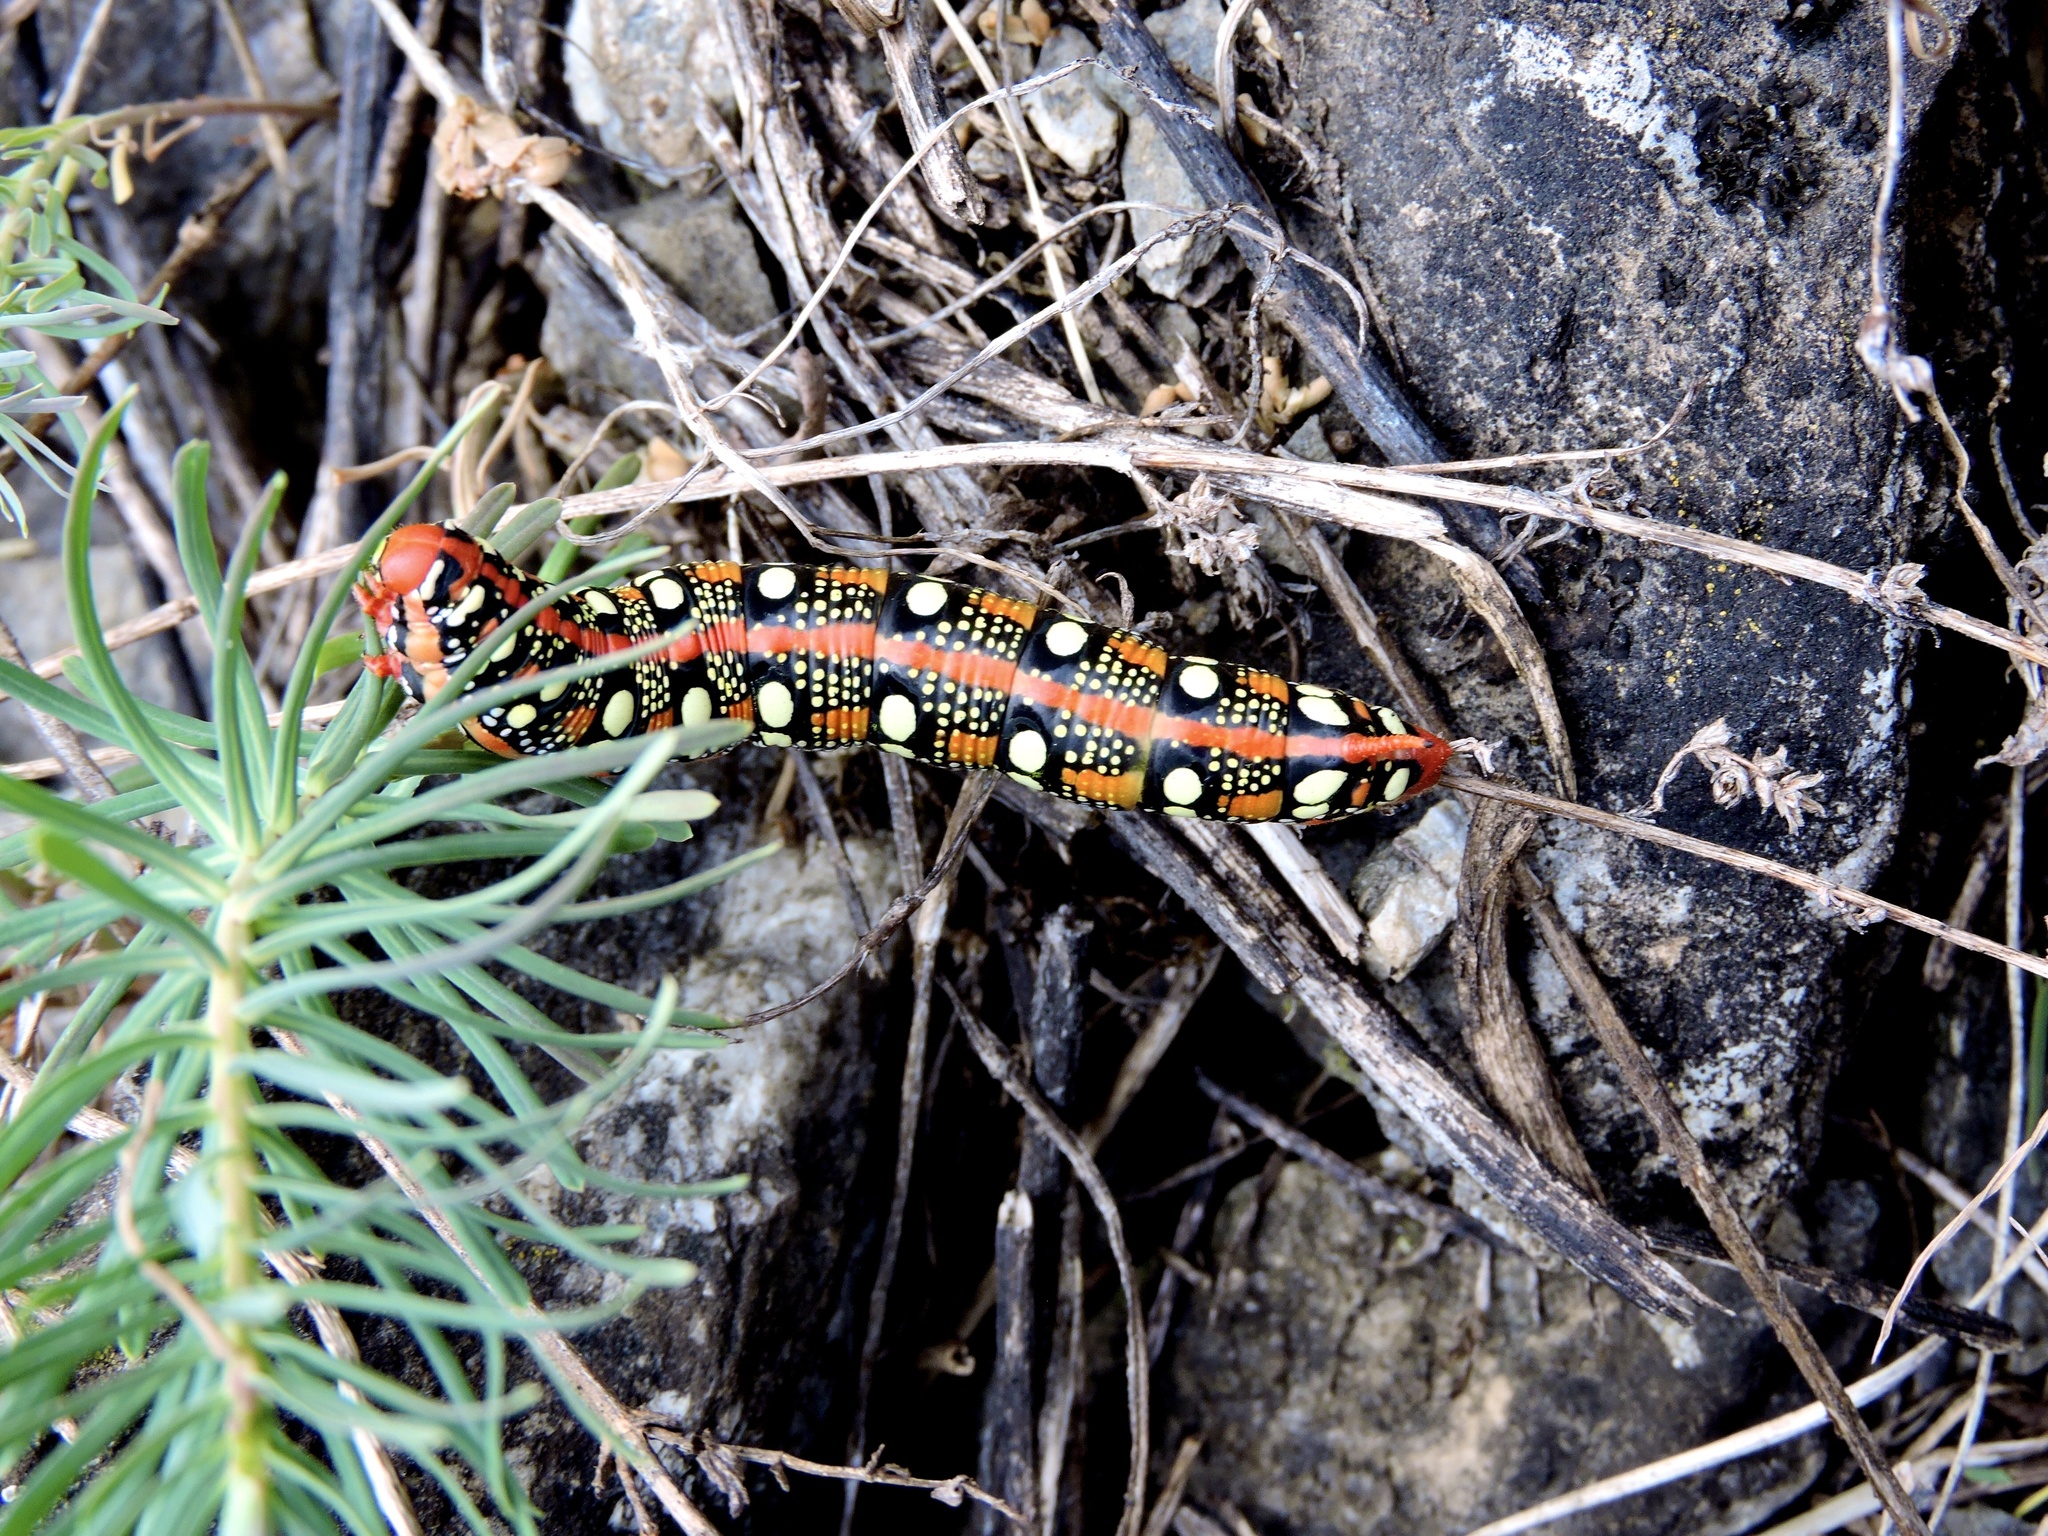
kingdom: Animalia
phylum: Arthropoda
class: Insecta
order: Lepidoptera
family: Sphingidae
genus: Hyles
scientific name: Hyles euphorbiae
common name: Spurge hawk-moth
